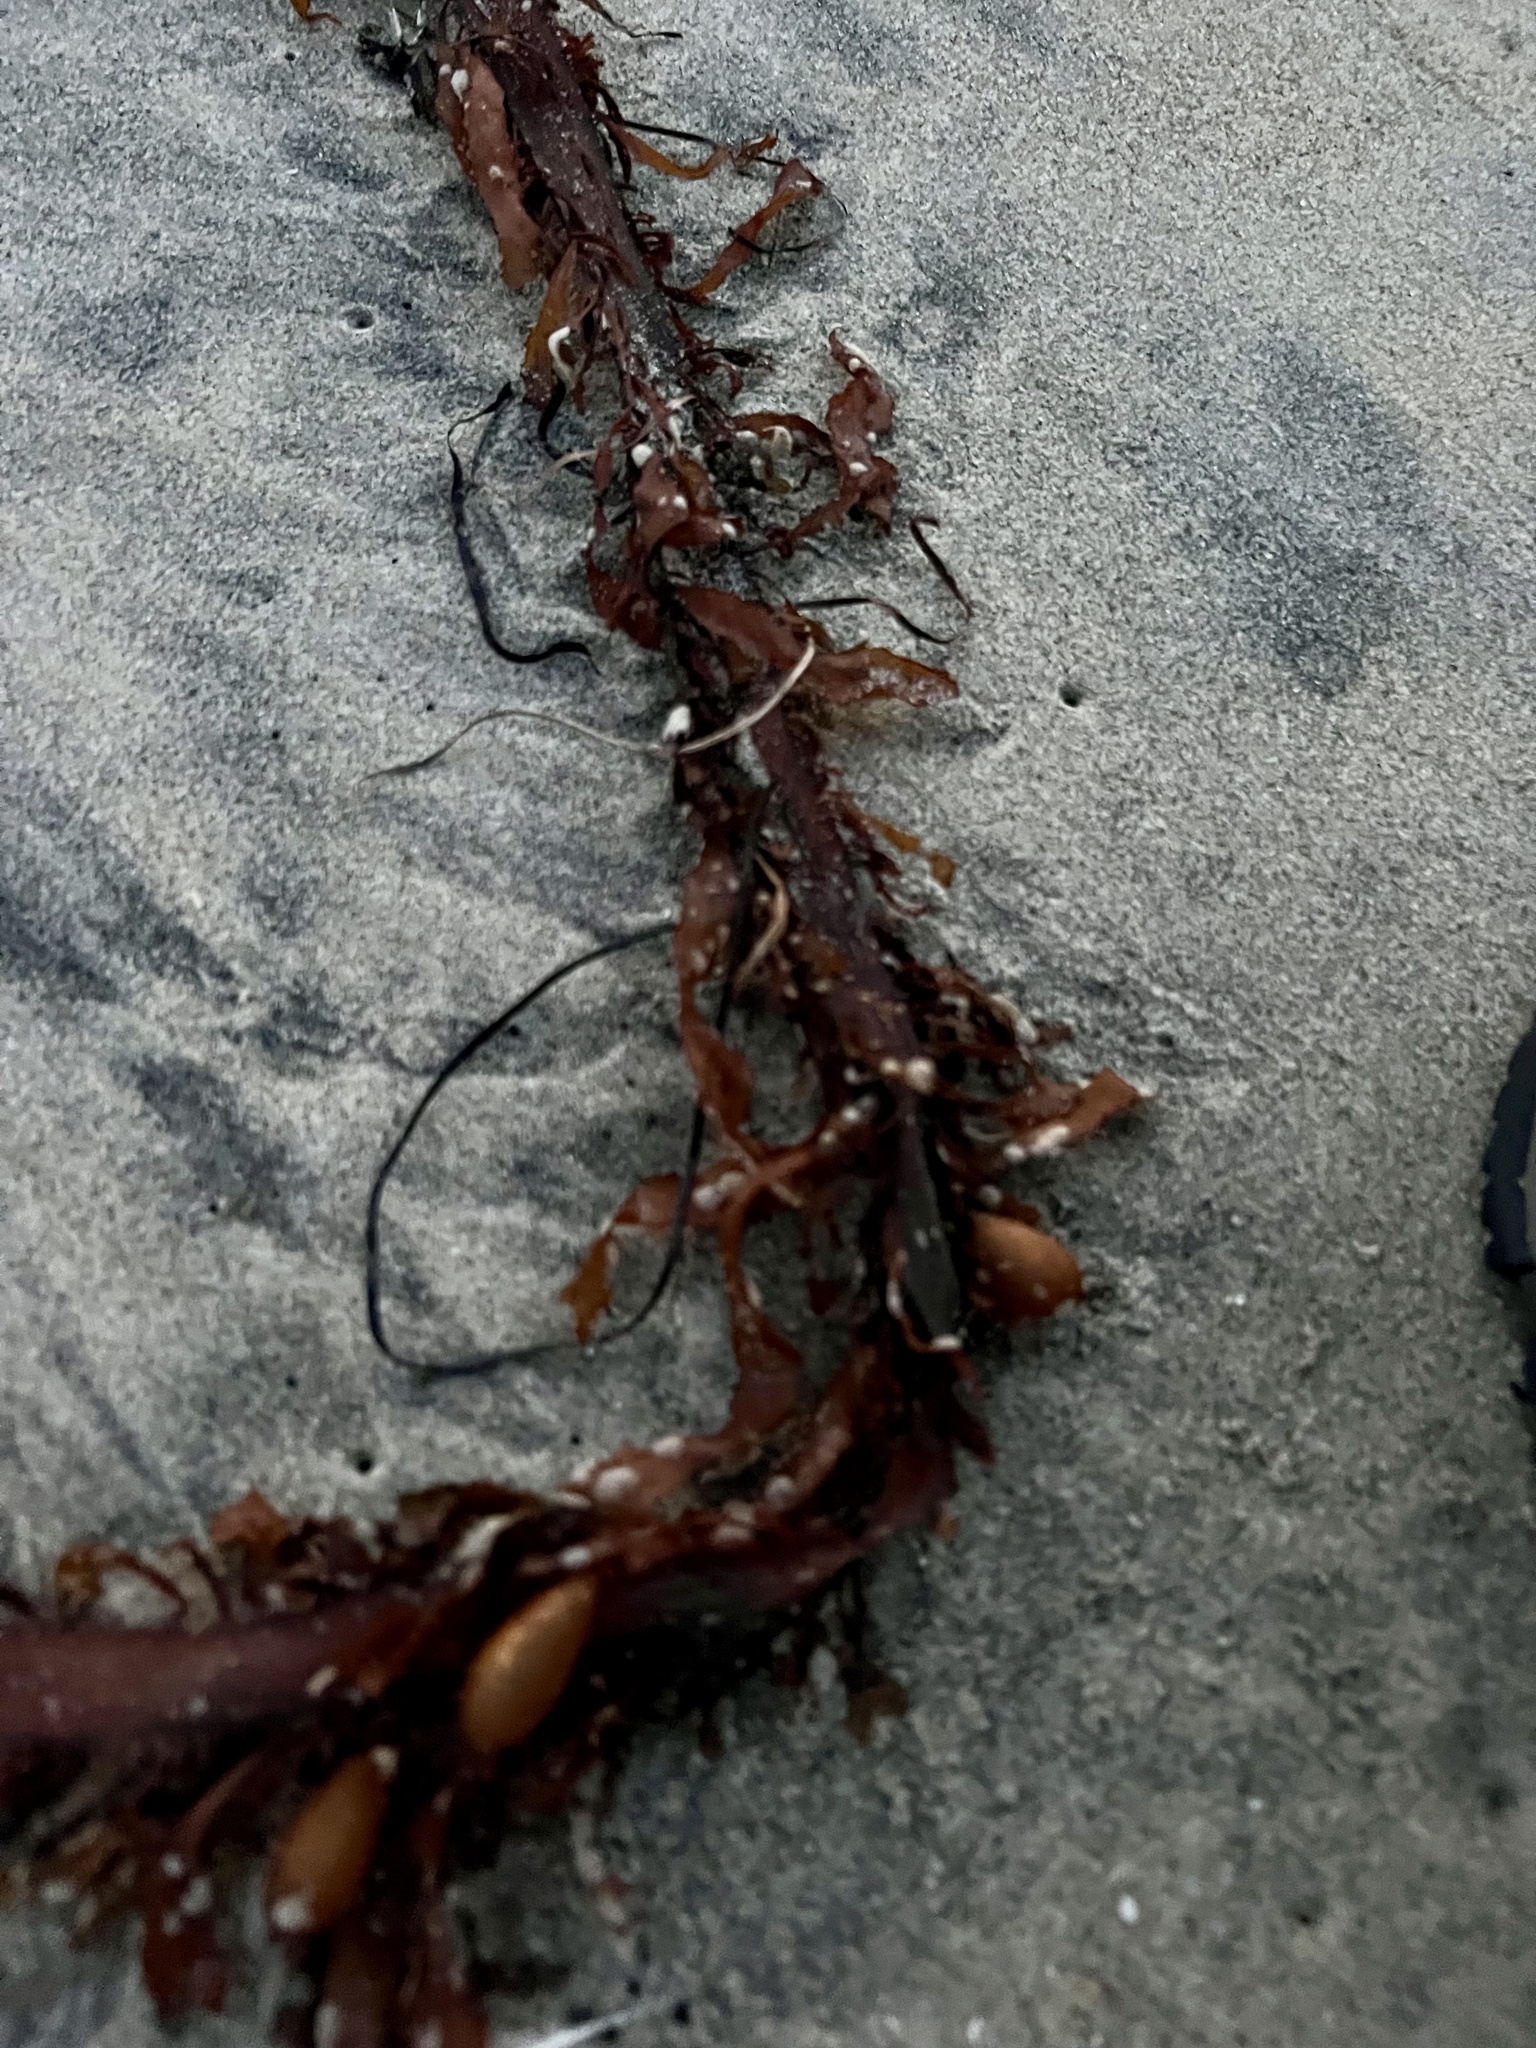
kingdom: Chromista
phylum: Ochrophyta
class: Phaeophyceae
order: Laminariales
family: Laminariaceae
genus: Macrocystis
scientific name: Macrocystis pyrifera
